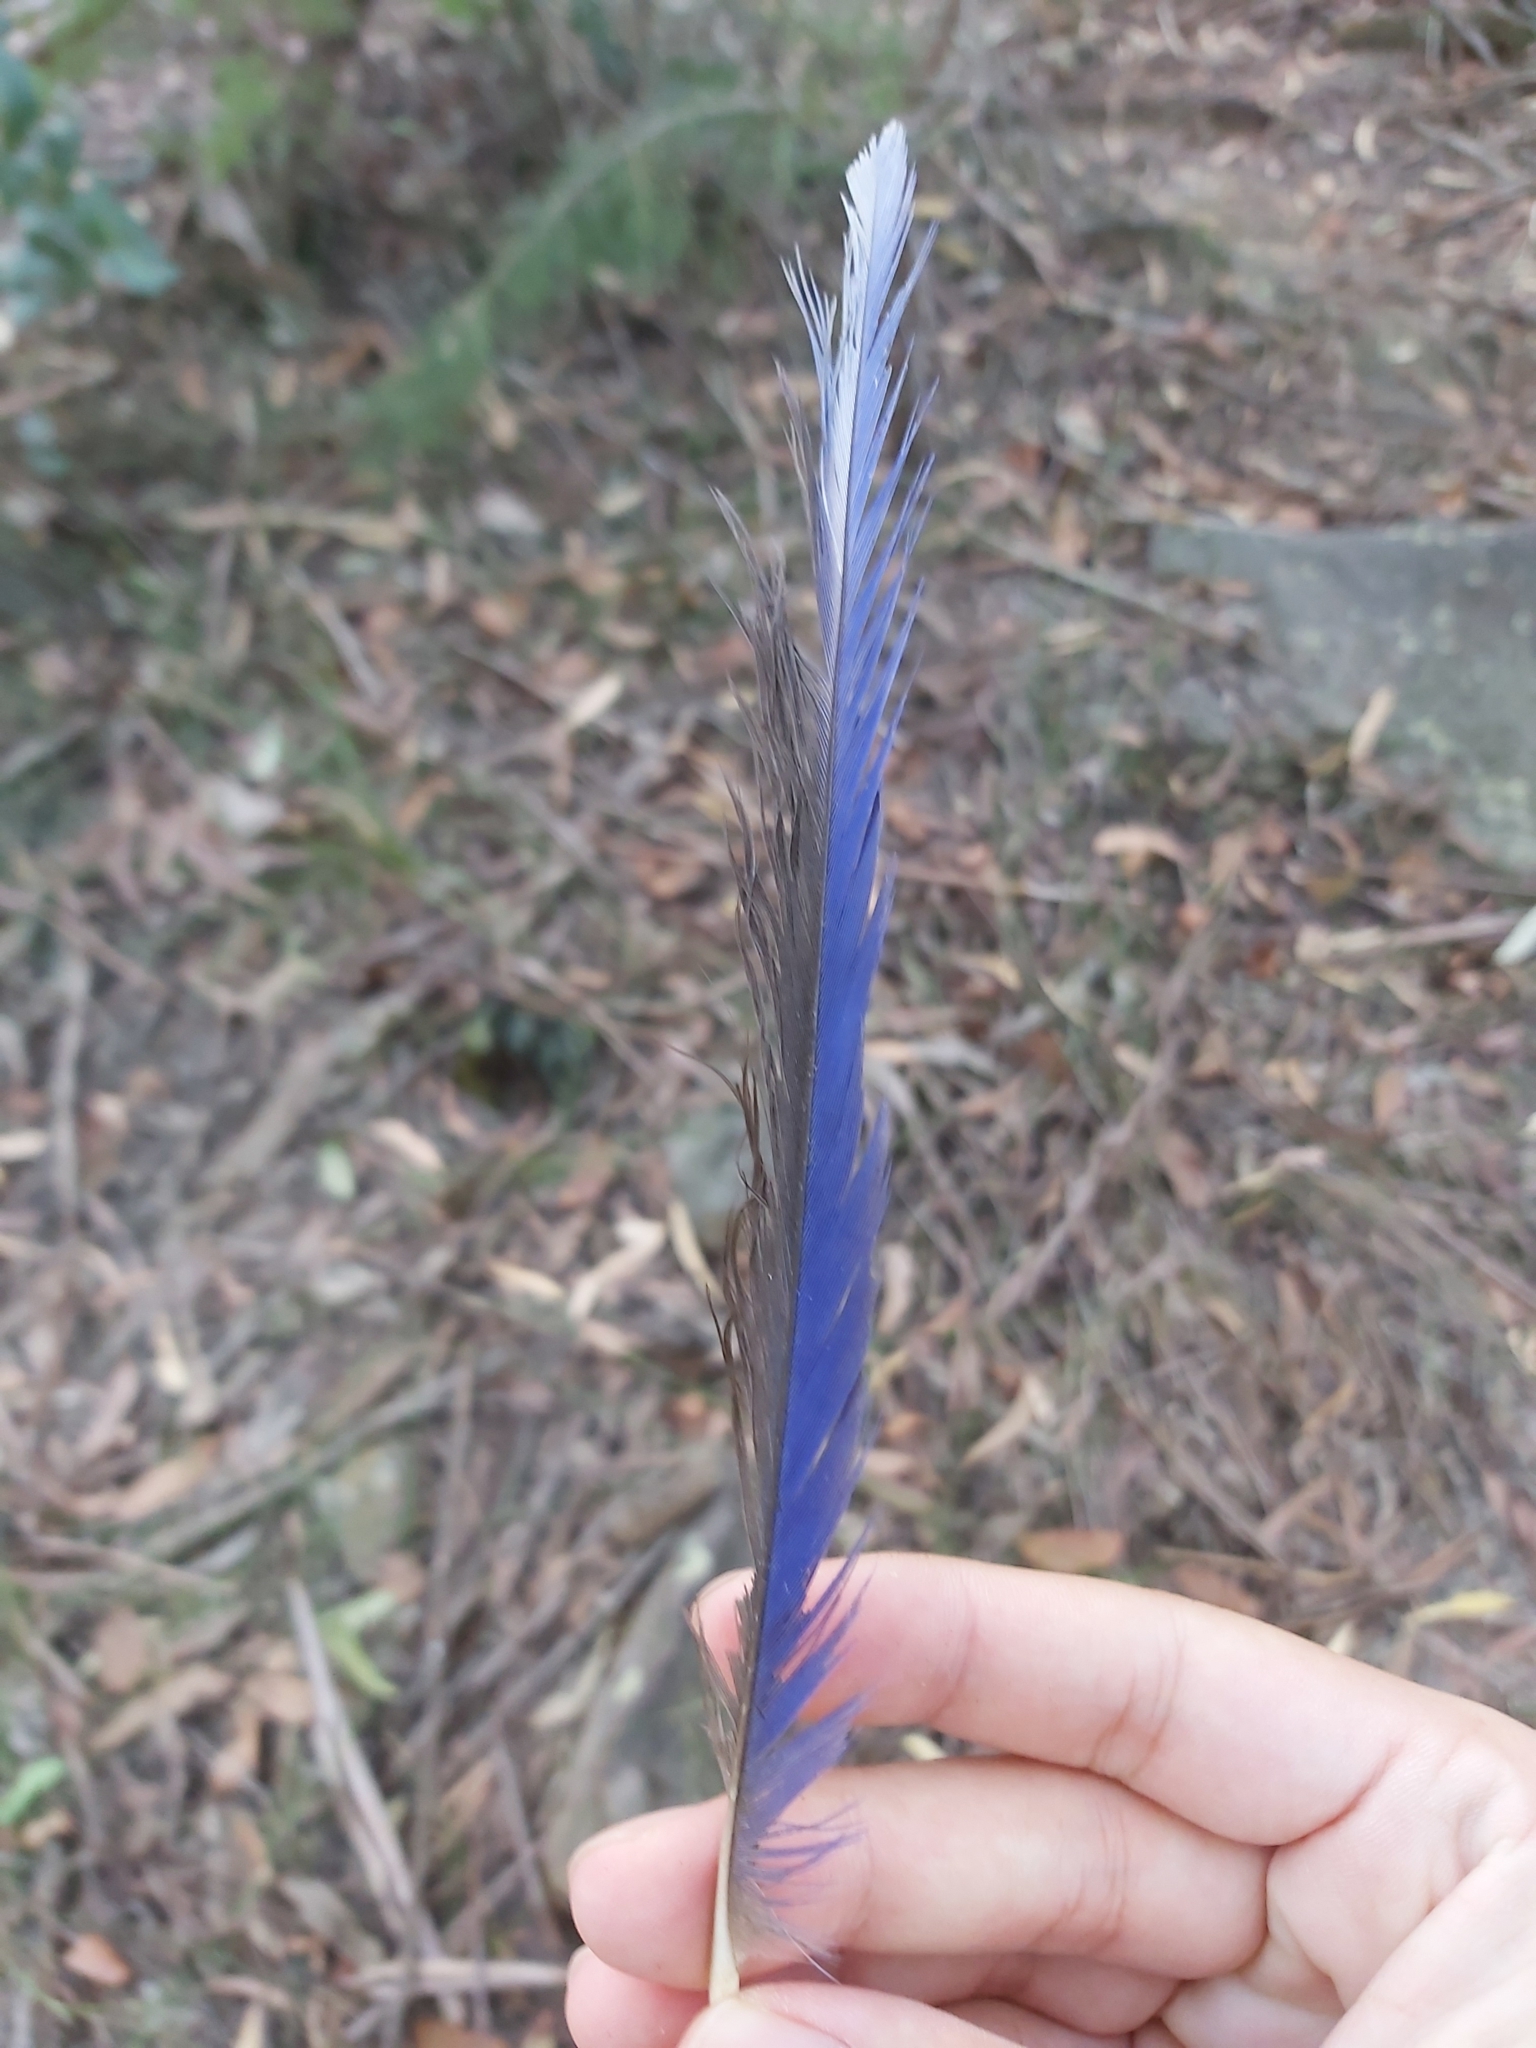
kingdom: Animalia
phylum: Chordata
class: Aves
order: Psittaciformes
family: Psittacidae
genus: Platycercus
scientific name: Platycercus elegans
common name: Crimson rosella
